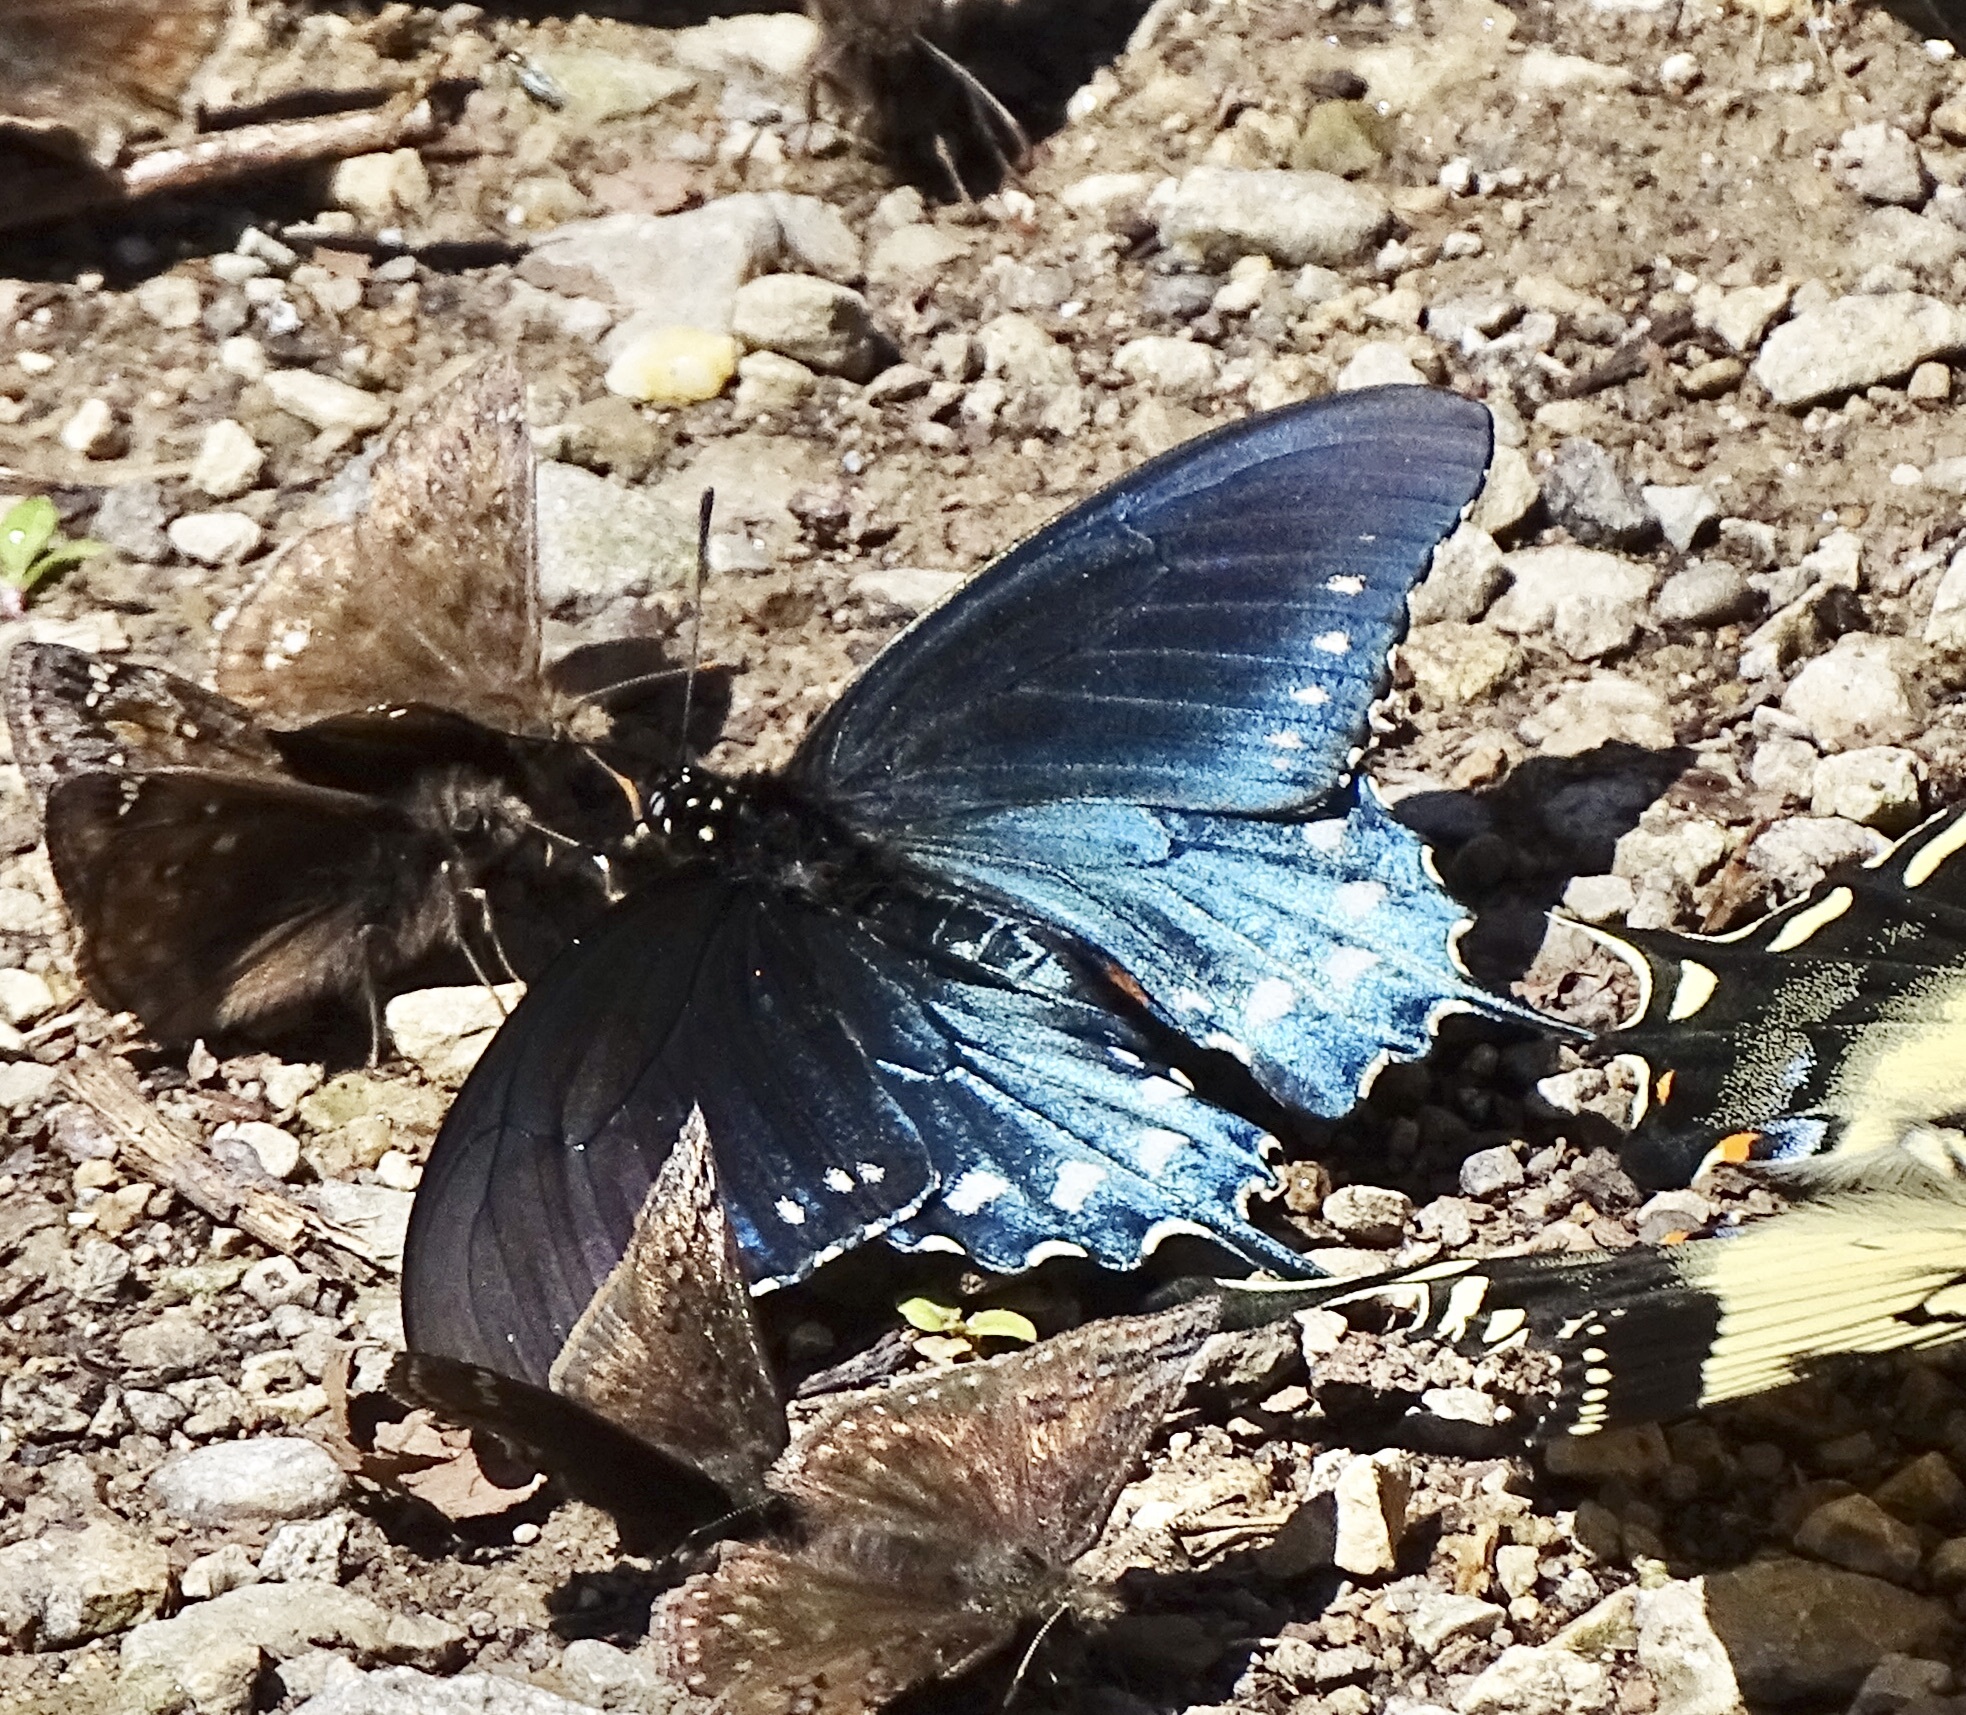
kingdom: Animalia
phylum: Arthropoda
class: Insecta
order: Lepidoptera
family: Papilionidae
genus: Battus
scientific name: Battus philenor
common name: Pipevine swallowtail
